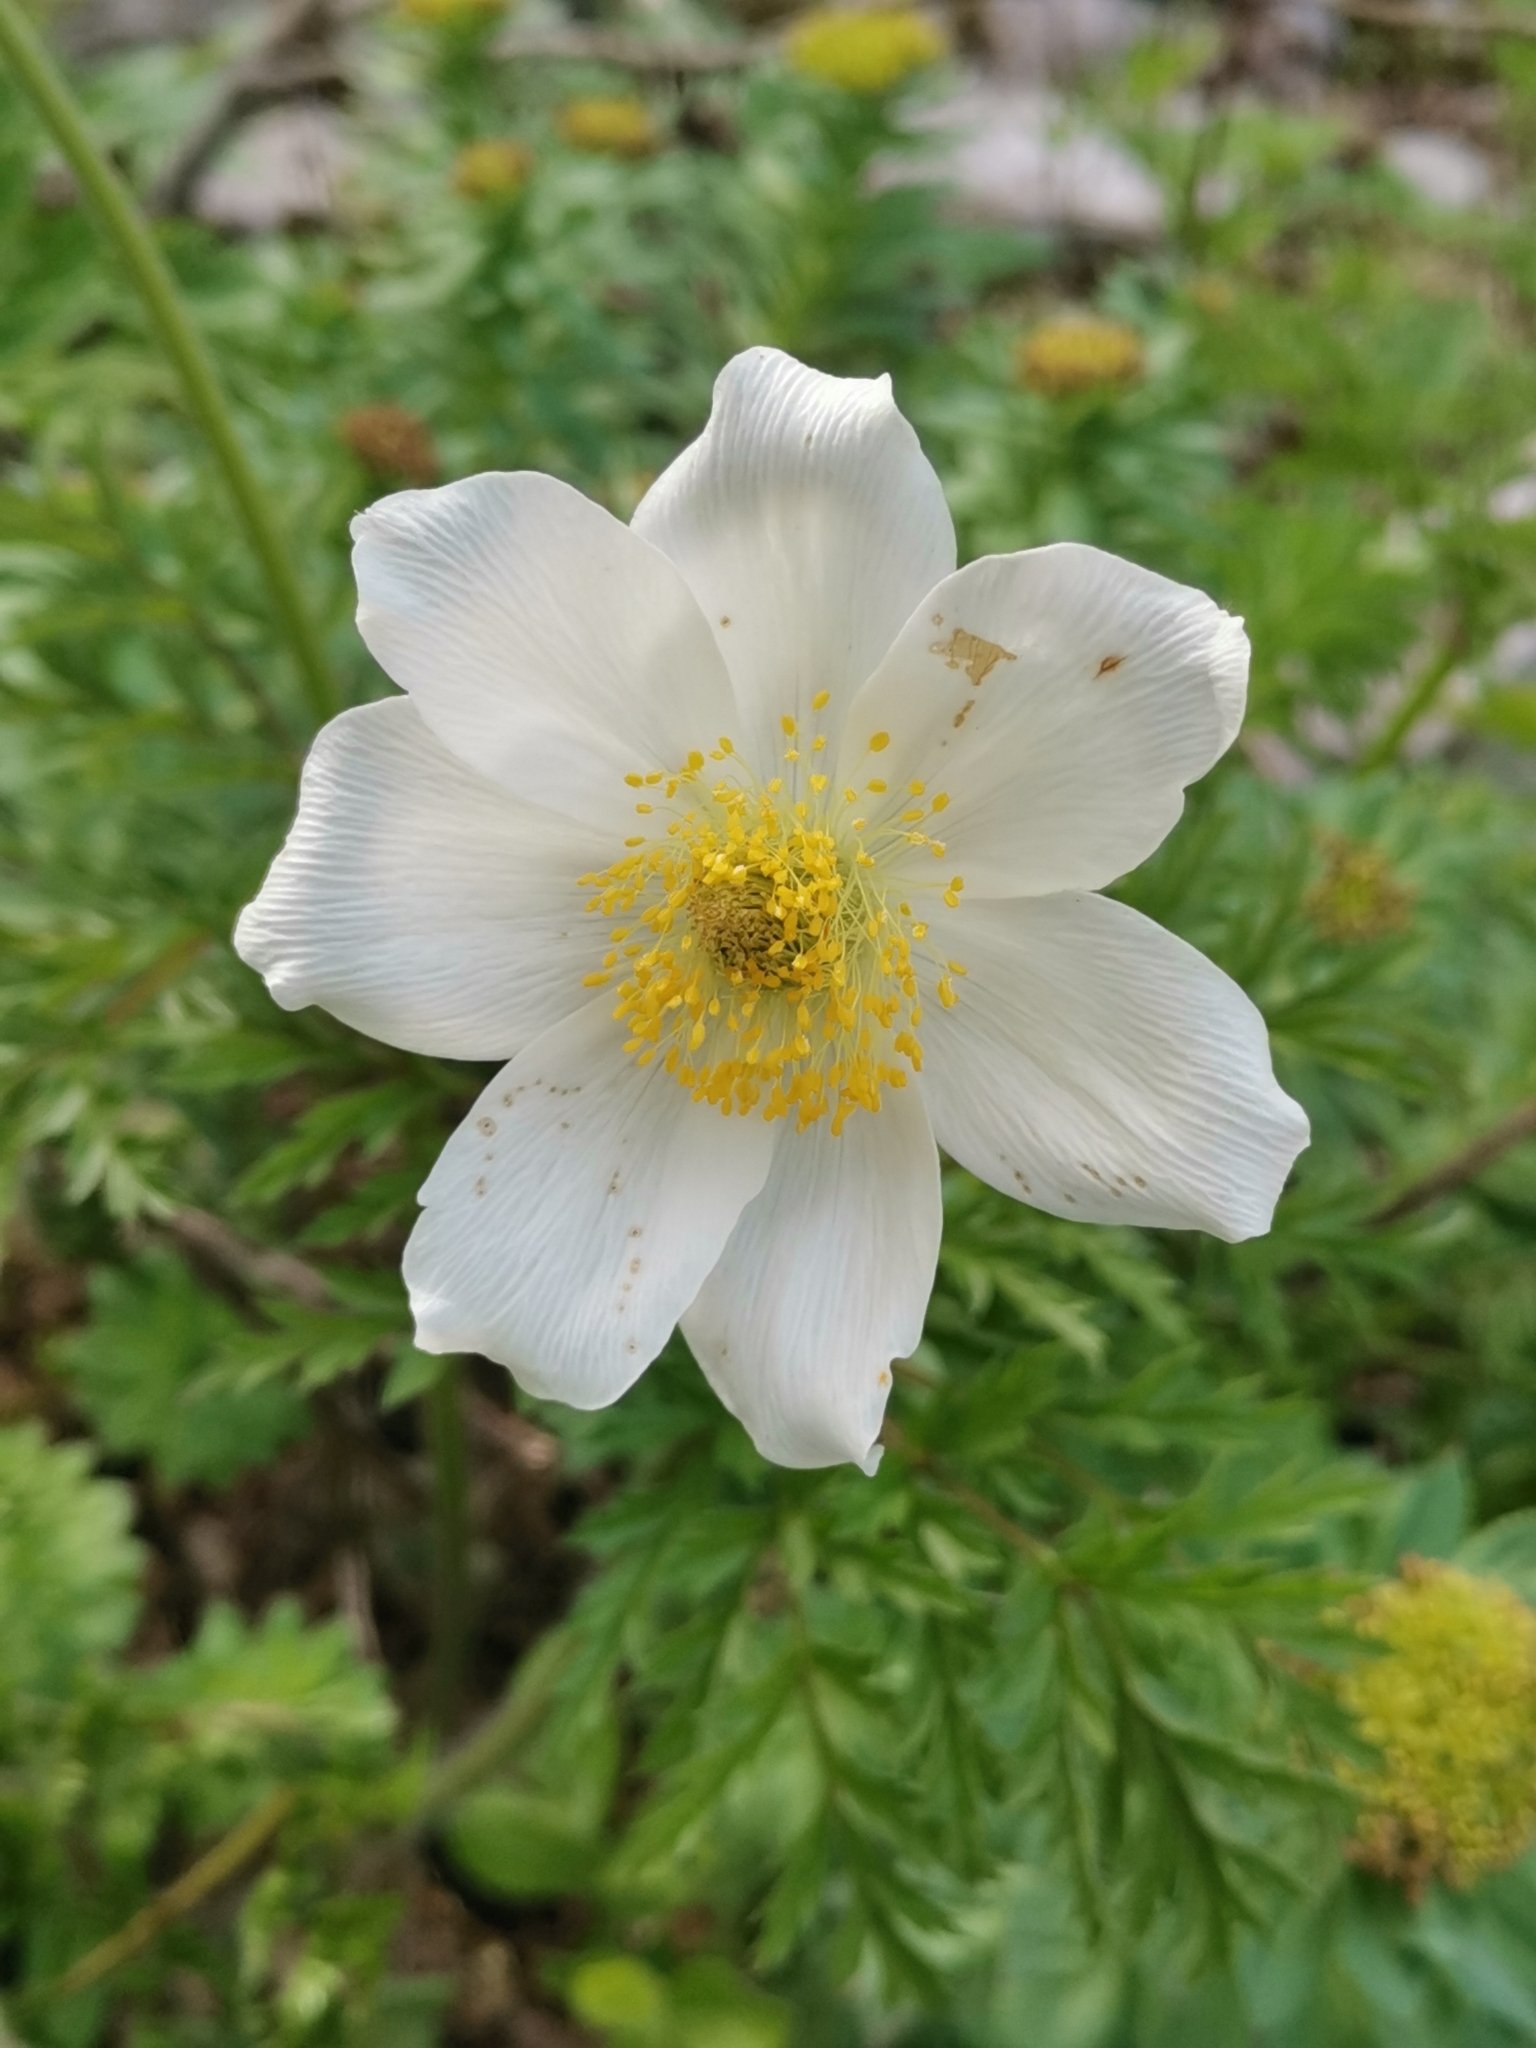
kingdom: Plantae
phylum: Tracheophyta
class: Magnoliopsida
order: Ranunculales
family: Ranunculaceae
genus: Pulsatilla
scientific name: Pulsatilla alpina
